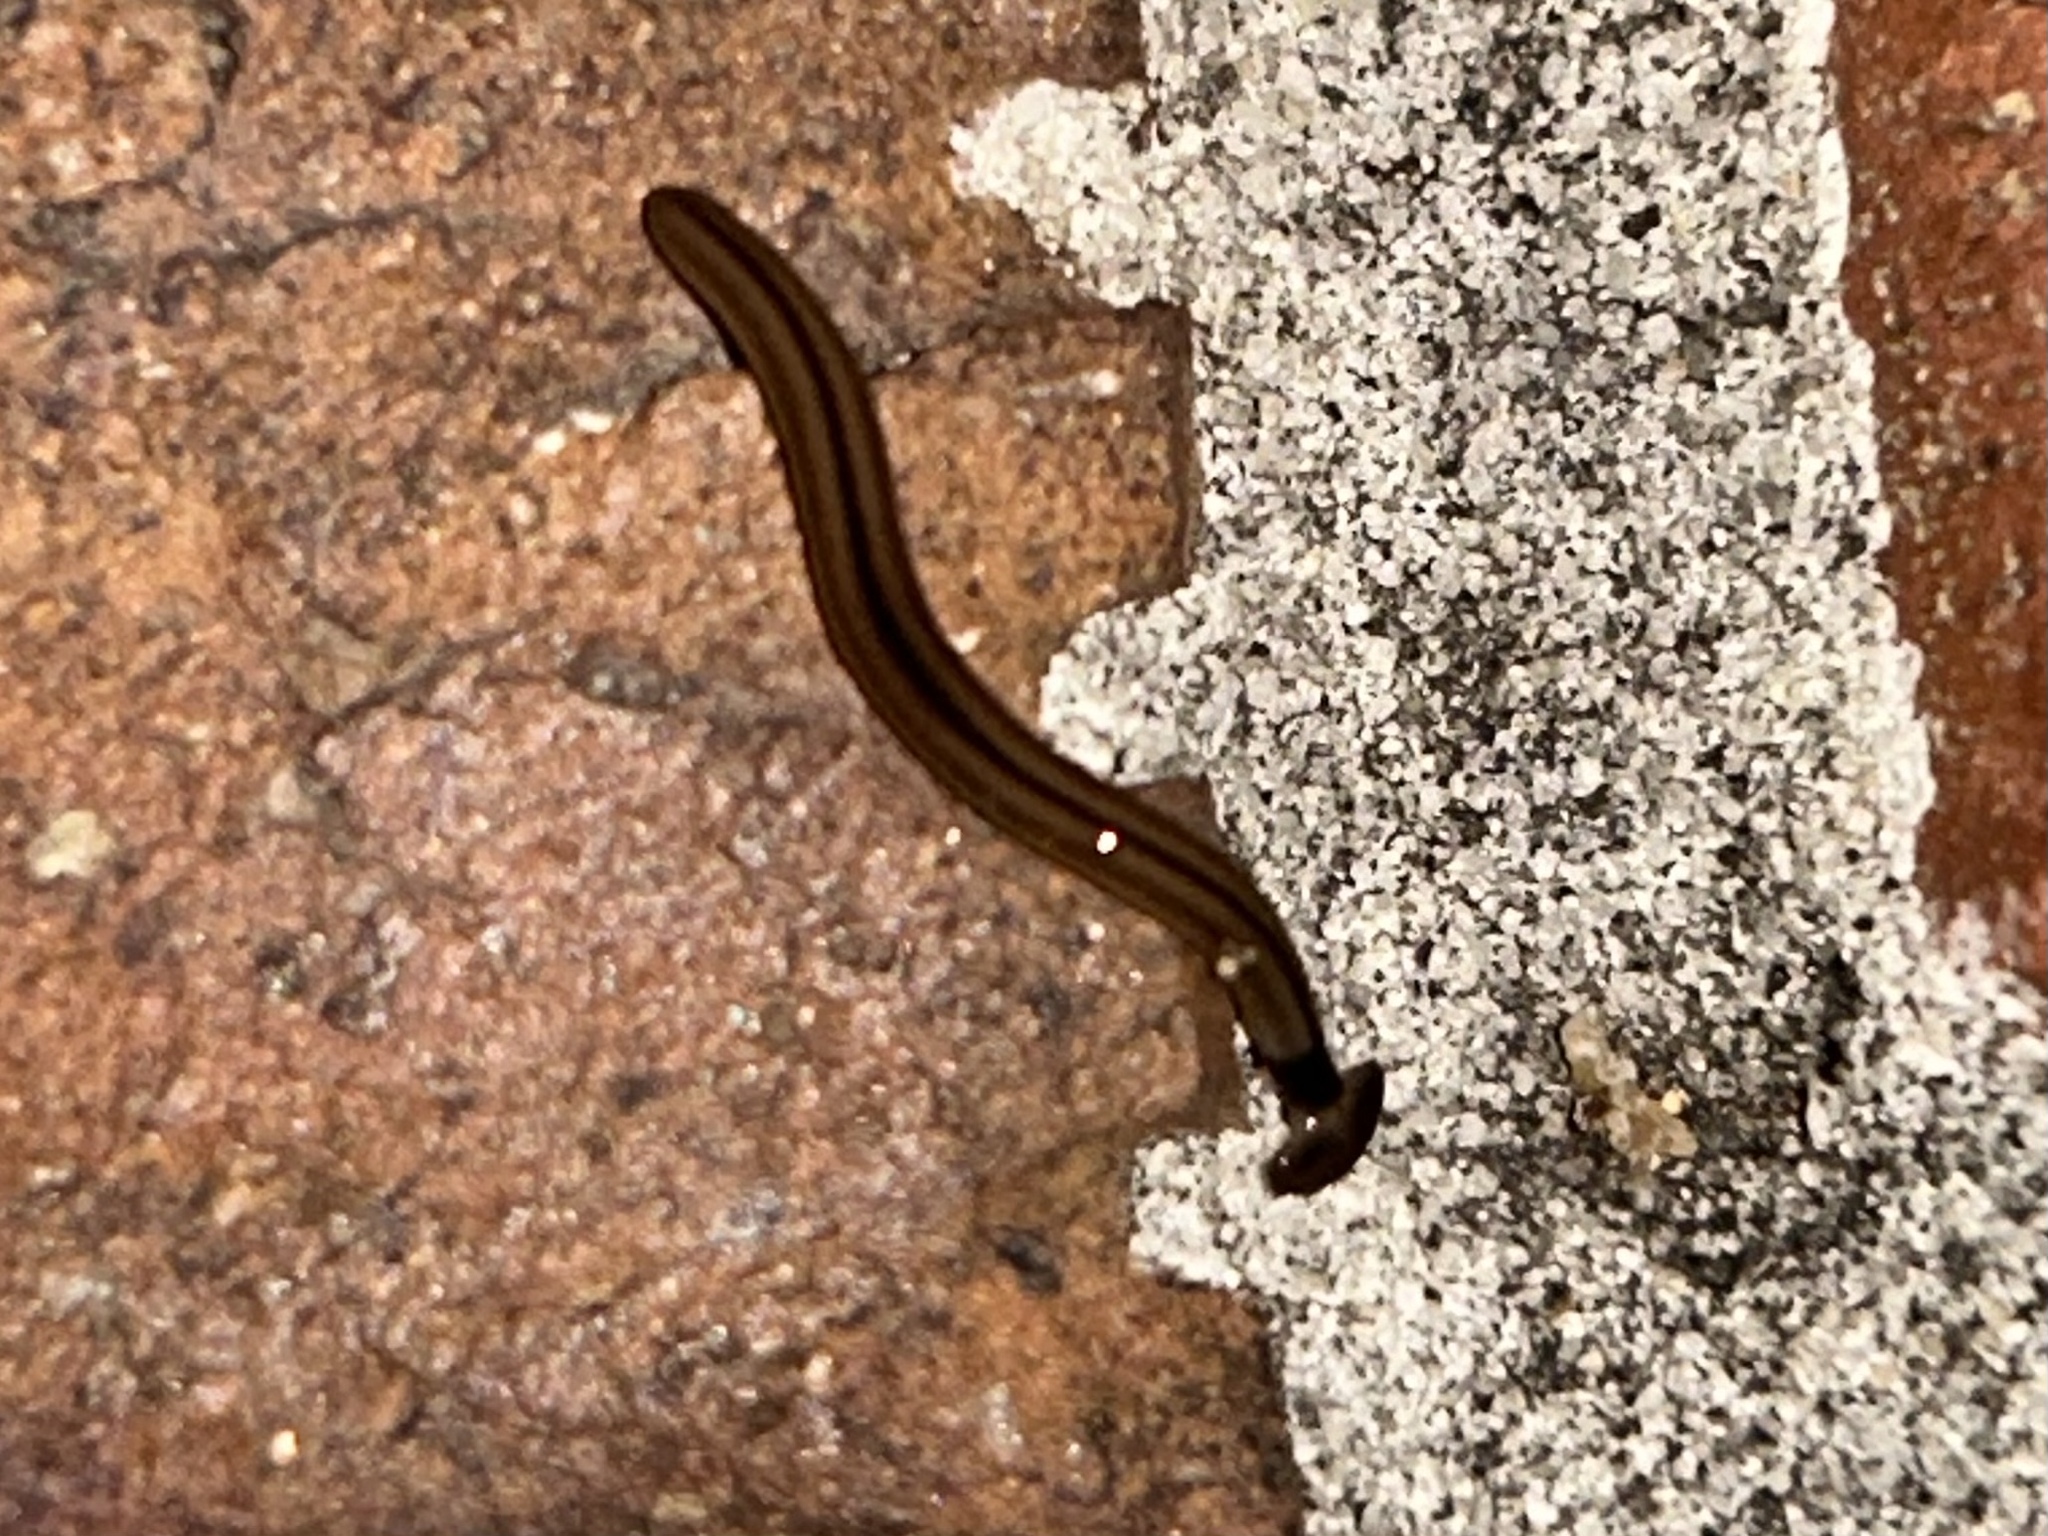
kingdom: Animalia
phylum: Platyhelminthes
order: Tricladida
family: Geoplanidae
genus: Bipalium
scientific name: Bipalium vagum
